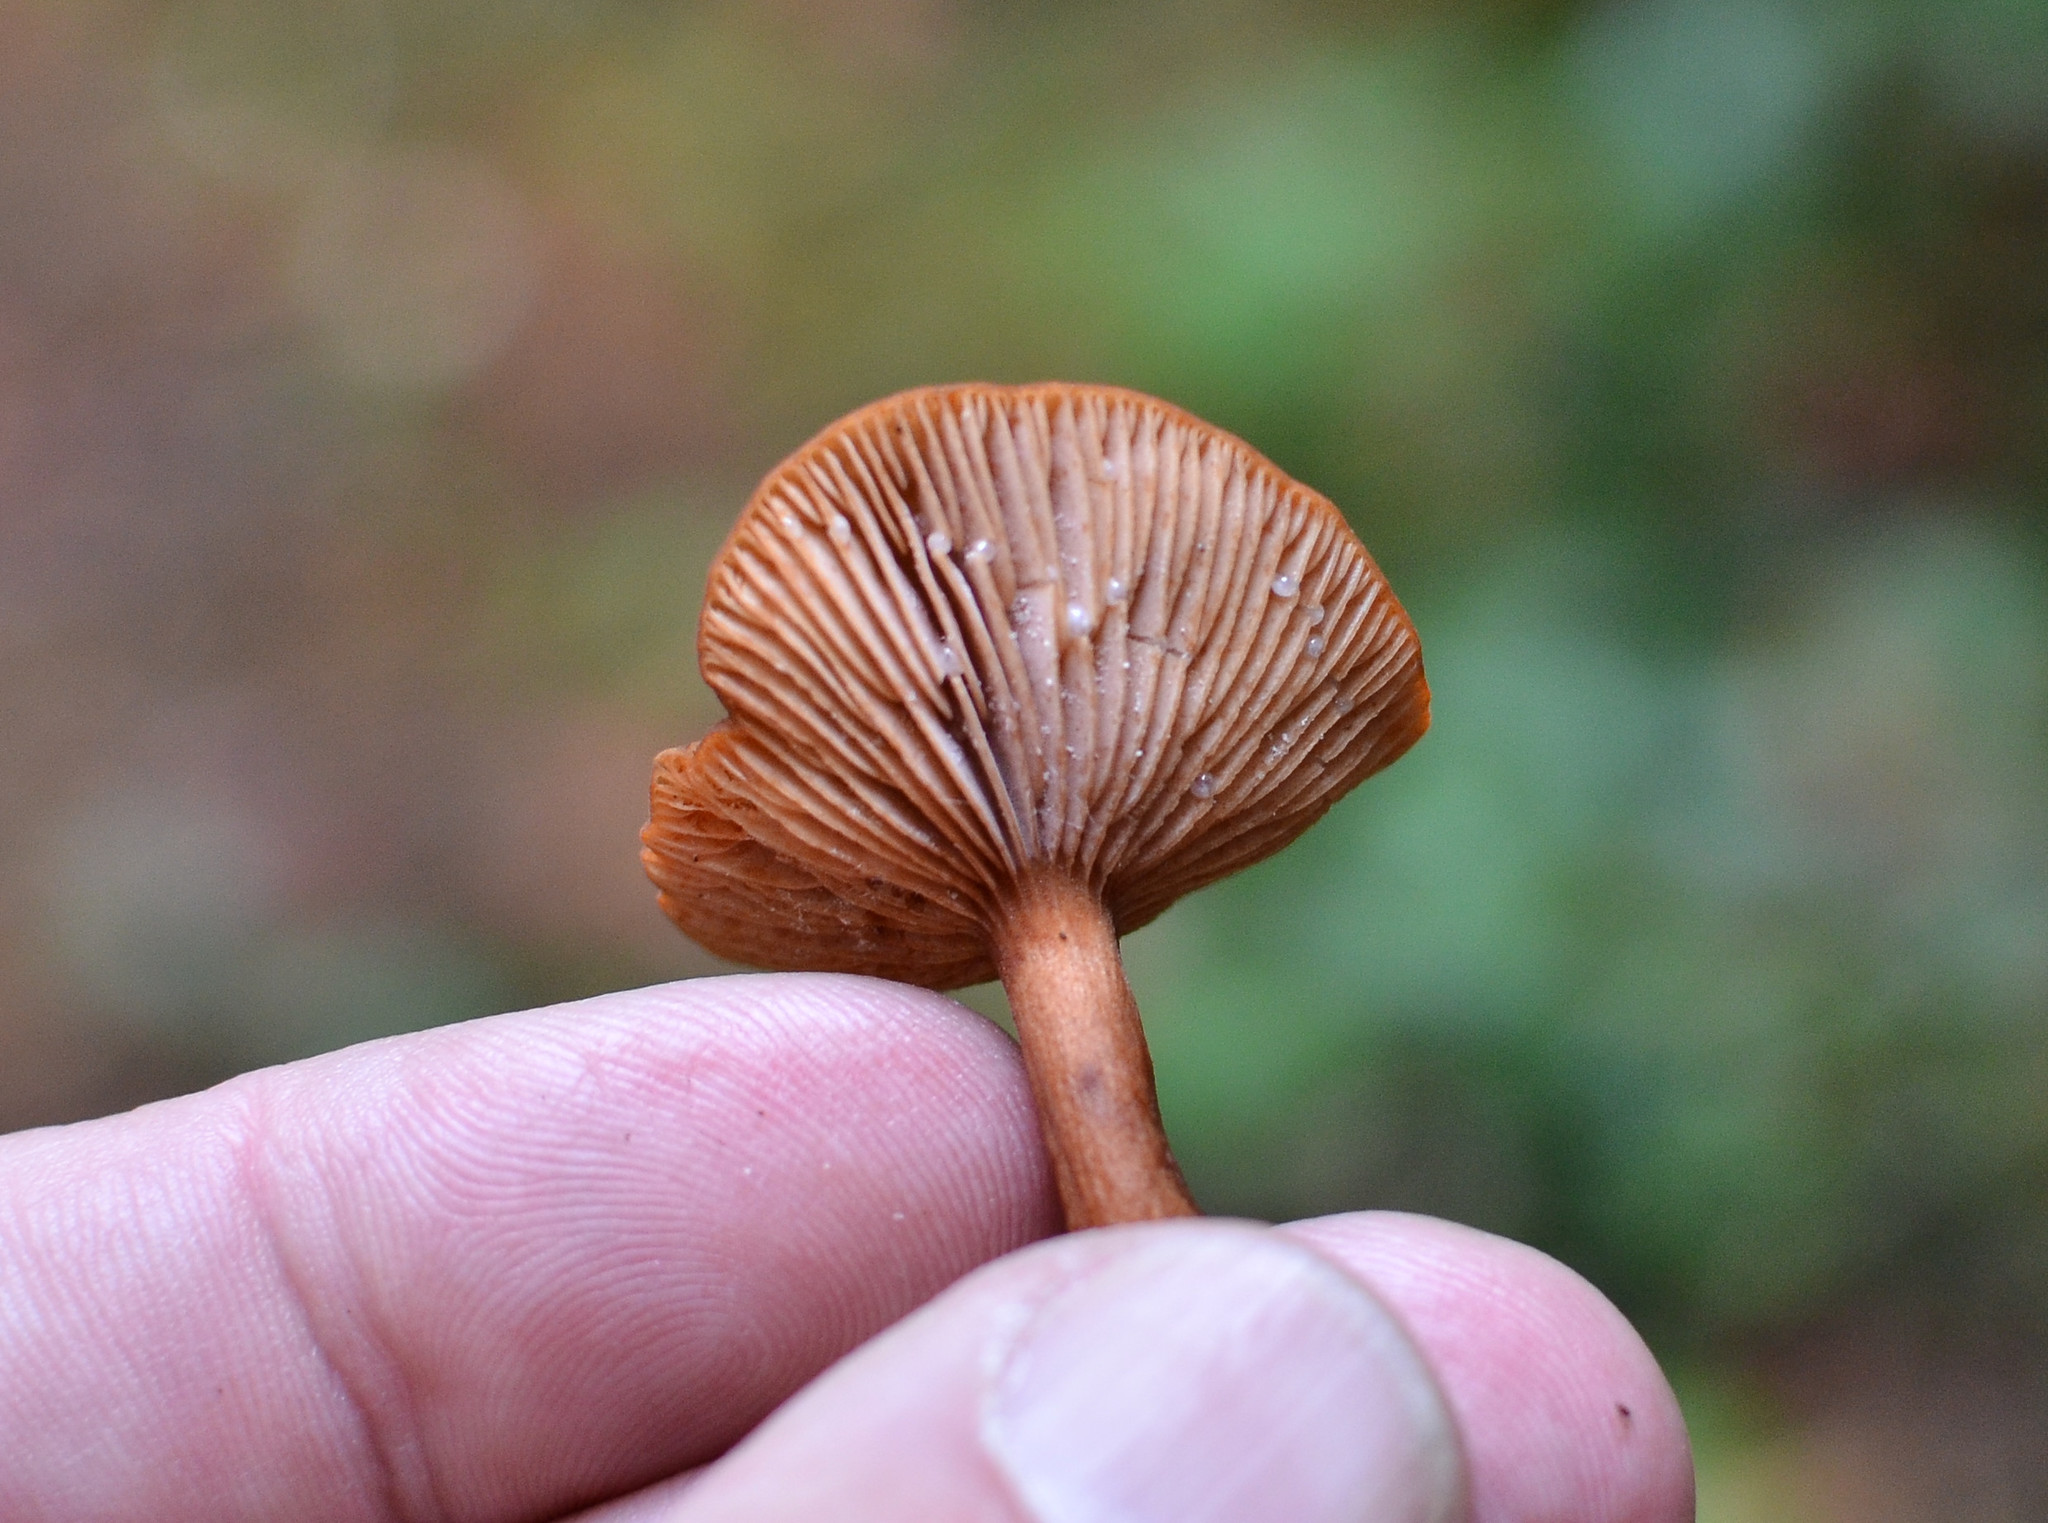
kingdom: Fungi
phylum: Basidiomycota
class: Agaricomycetes
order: Russulales
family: Russulaceae
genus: Lactarius
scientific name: Lactarius rubidus
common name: Candy cap
